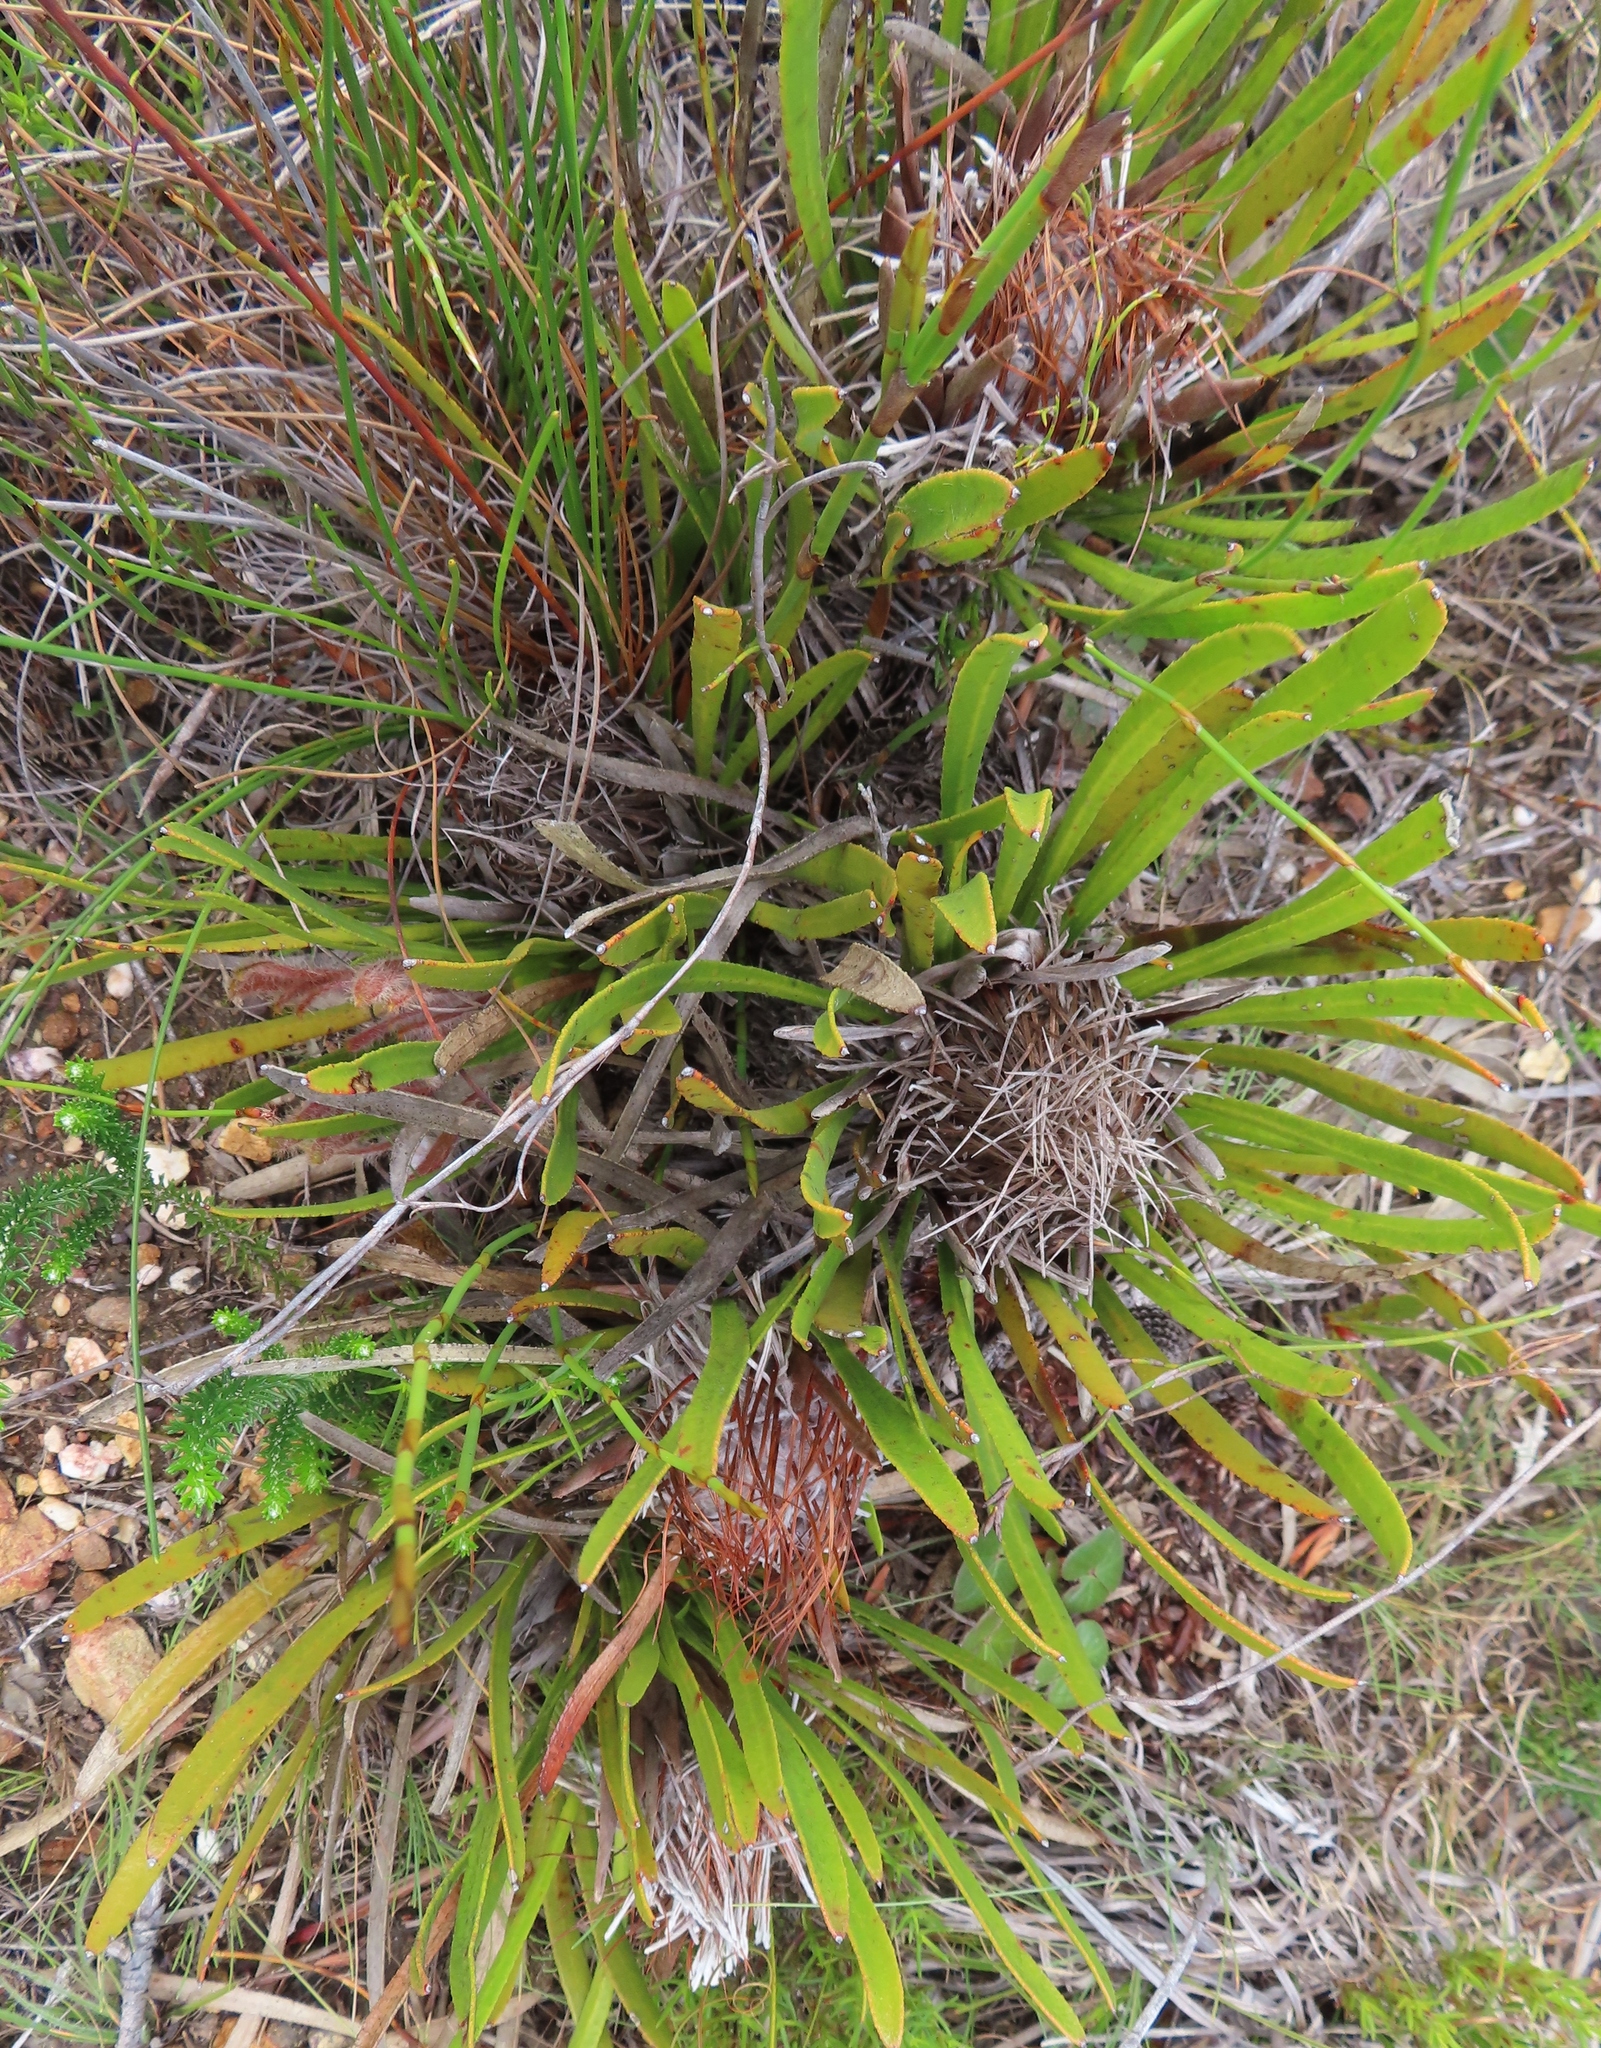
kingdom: Plantae
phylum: Tracheophyta
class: Magnoliopsida
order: Proteales
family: Proteaceae
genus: Protea
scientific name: Protea aspera
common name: Rough-leaf sugarbush
